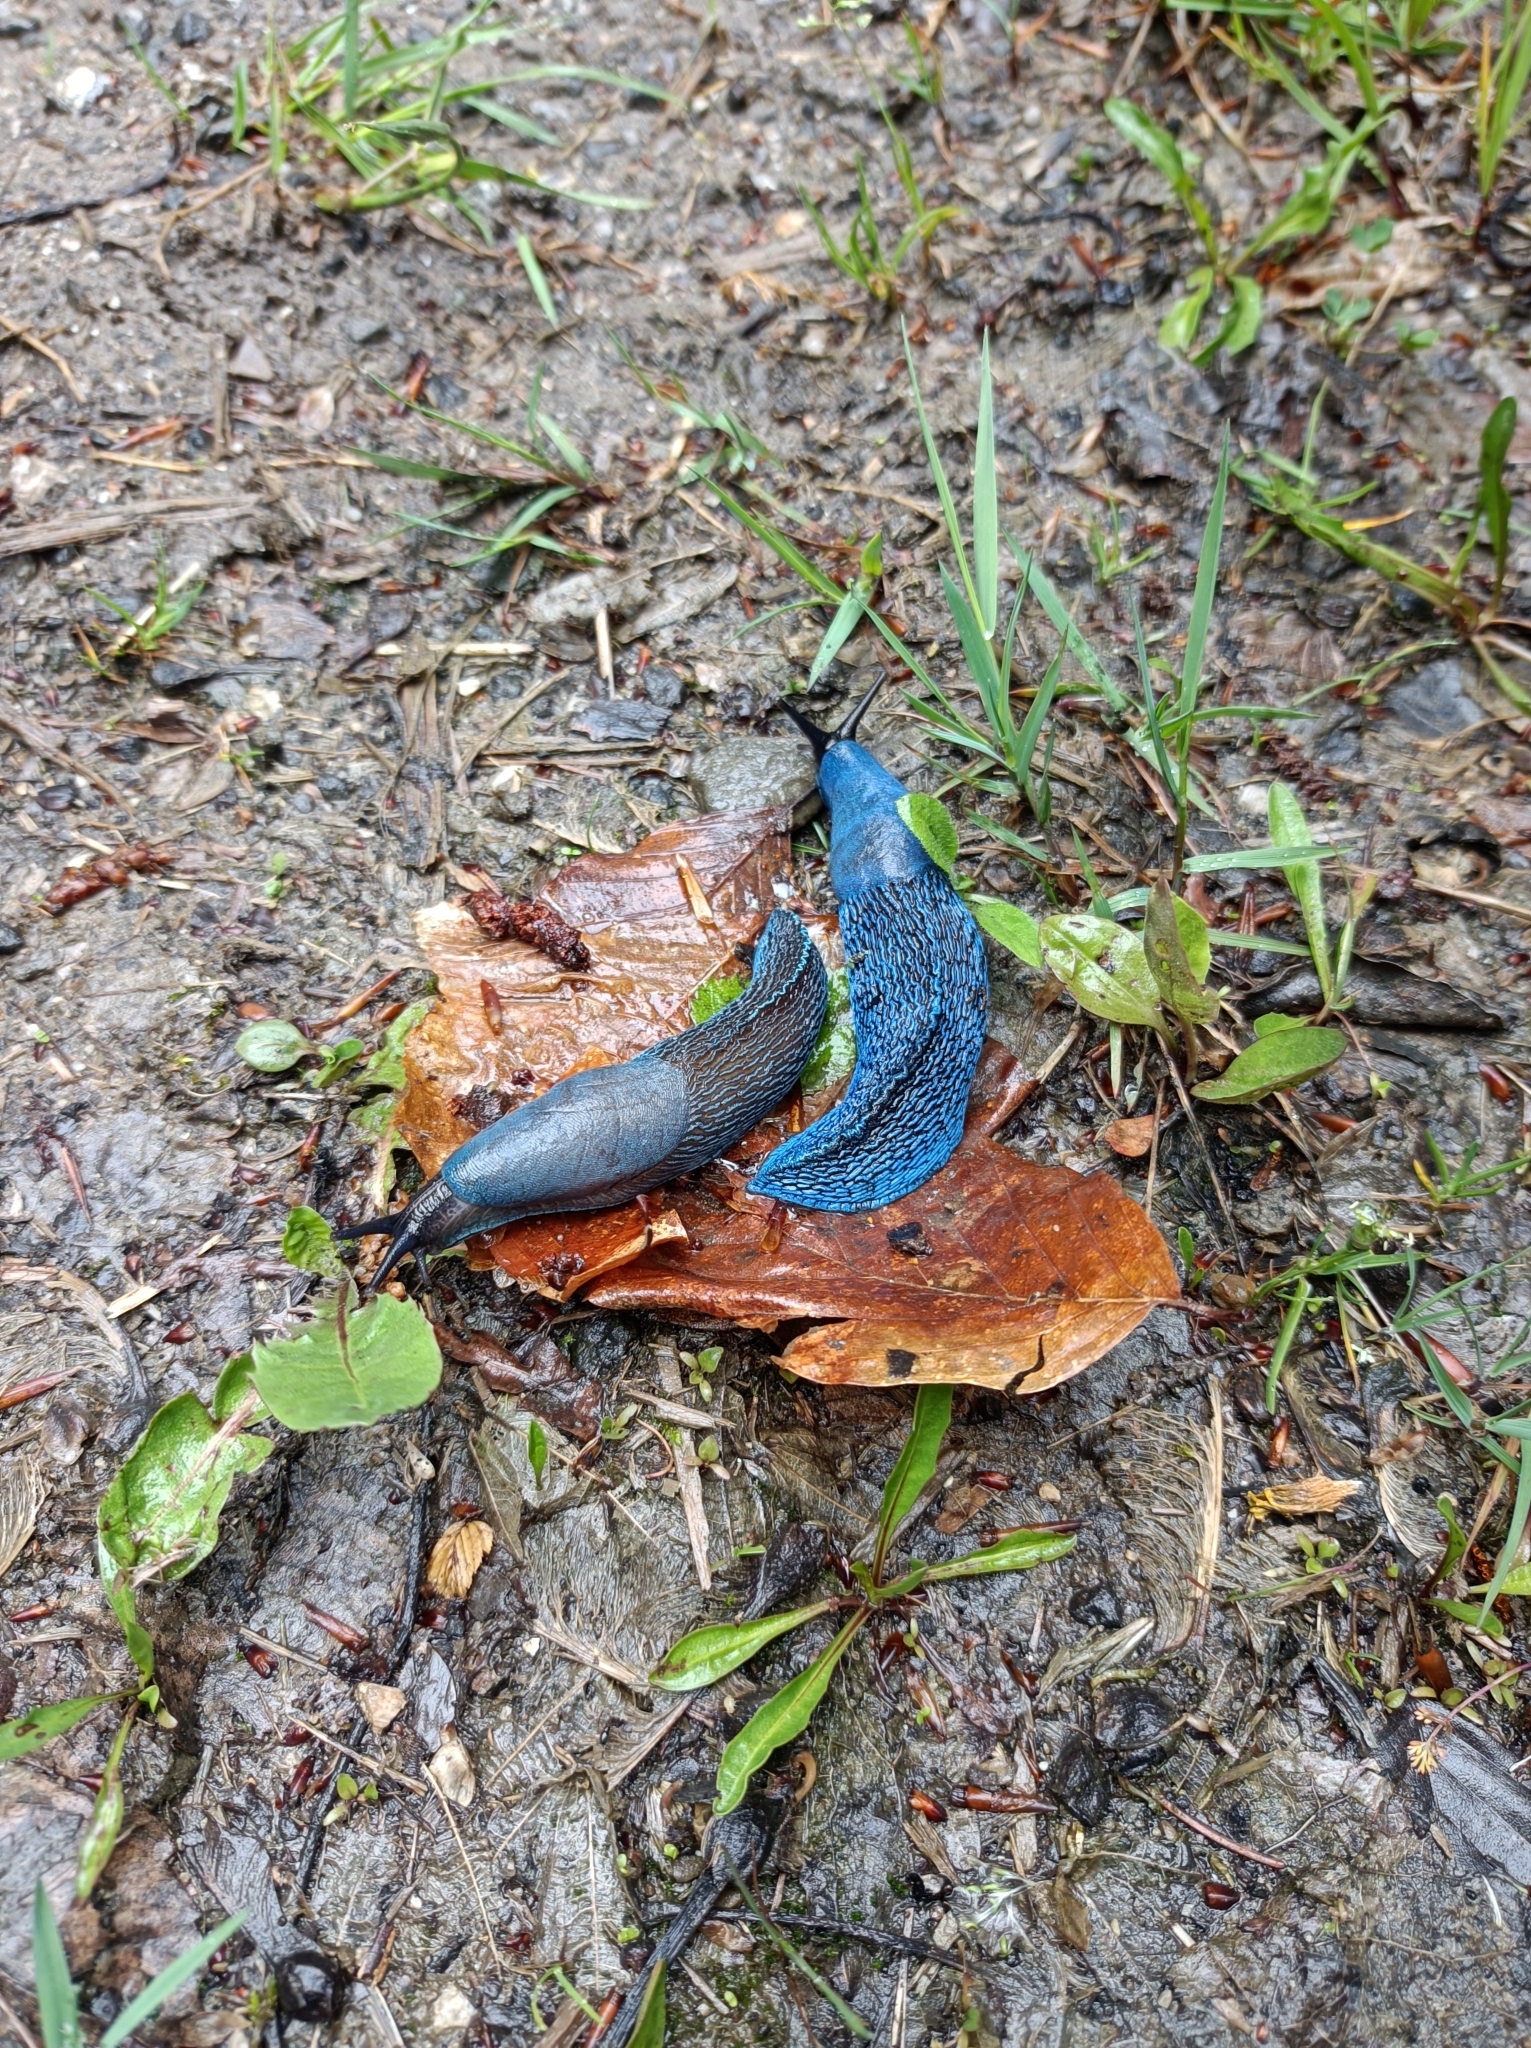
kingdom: Animalia
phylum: Mollusca
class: Gastropoda
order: Stylommatophora
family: Limacidae
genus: Bielzia
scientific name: Bielzia coerulans
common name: Carpathian blue slug
